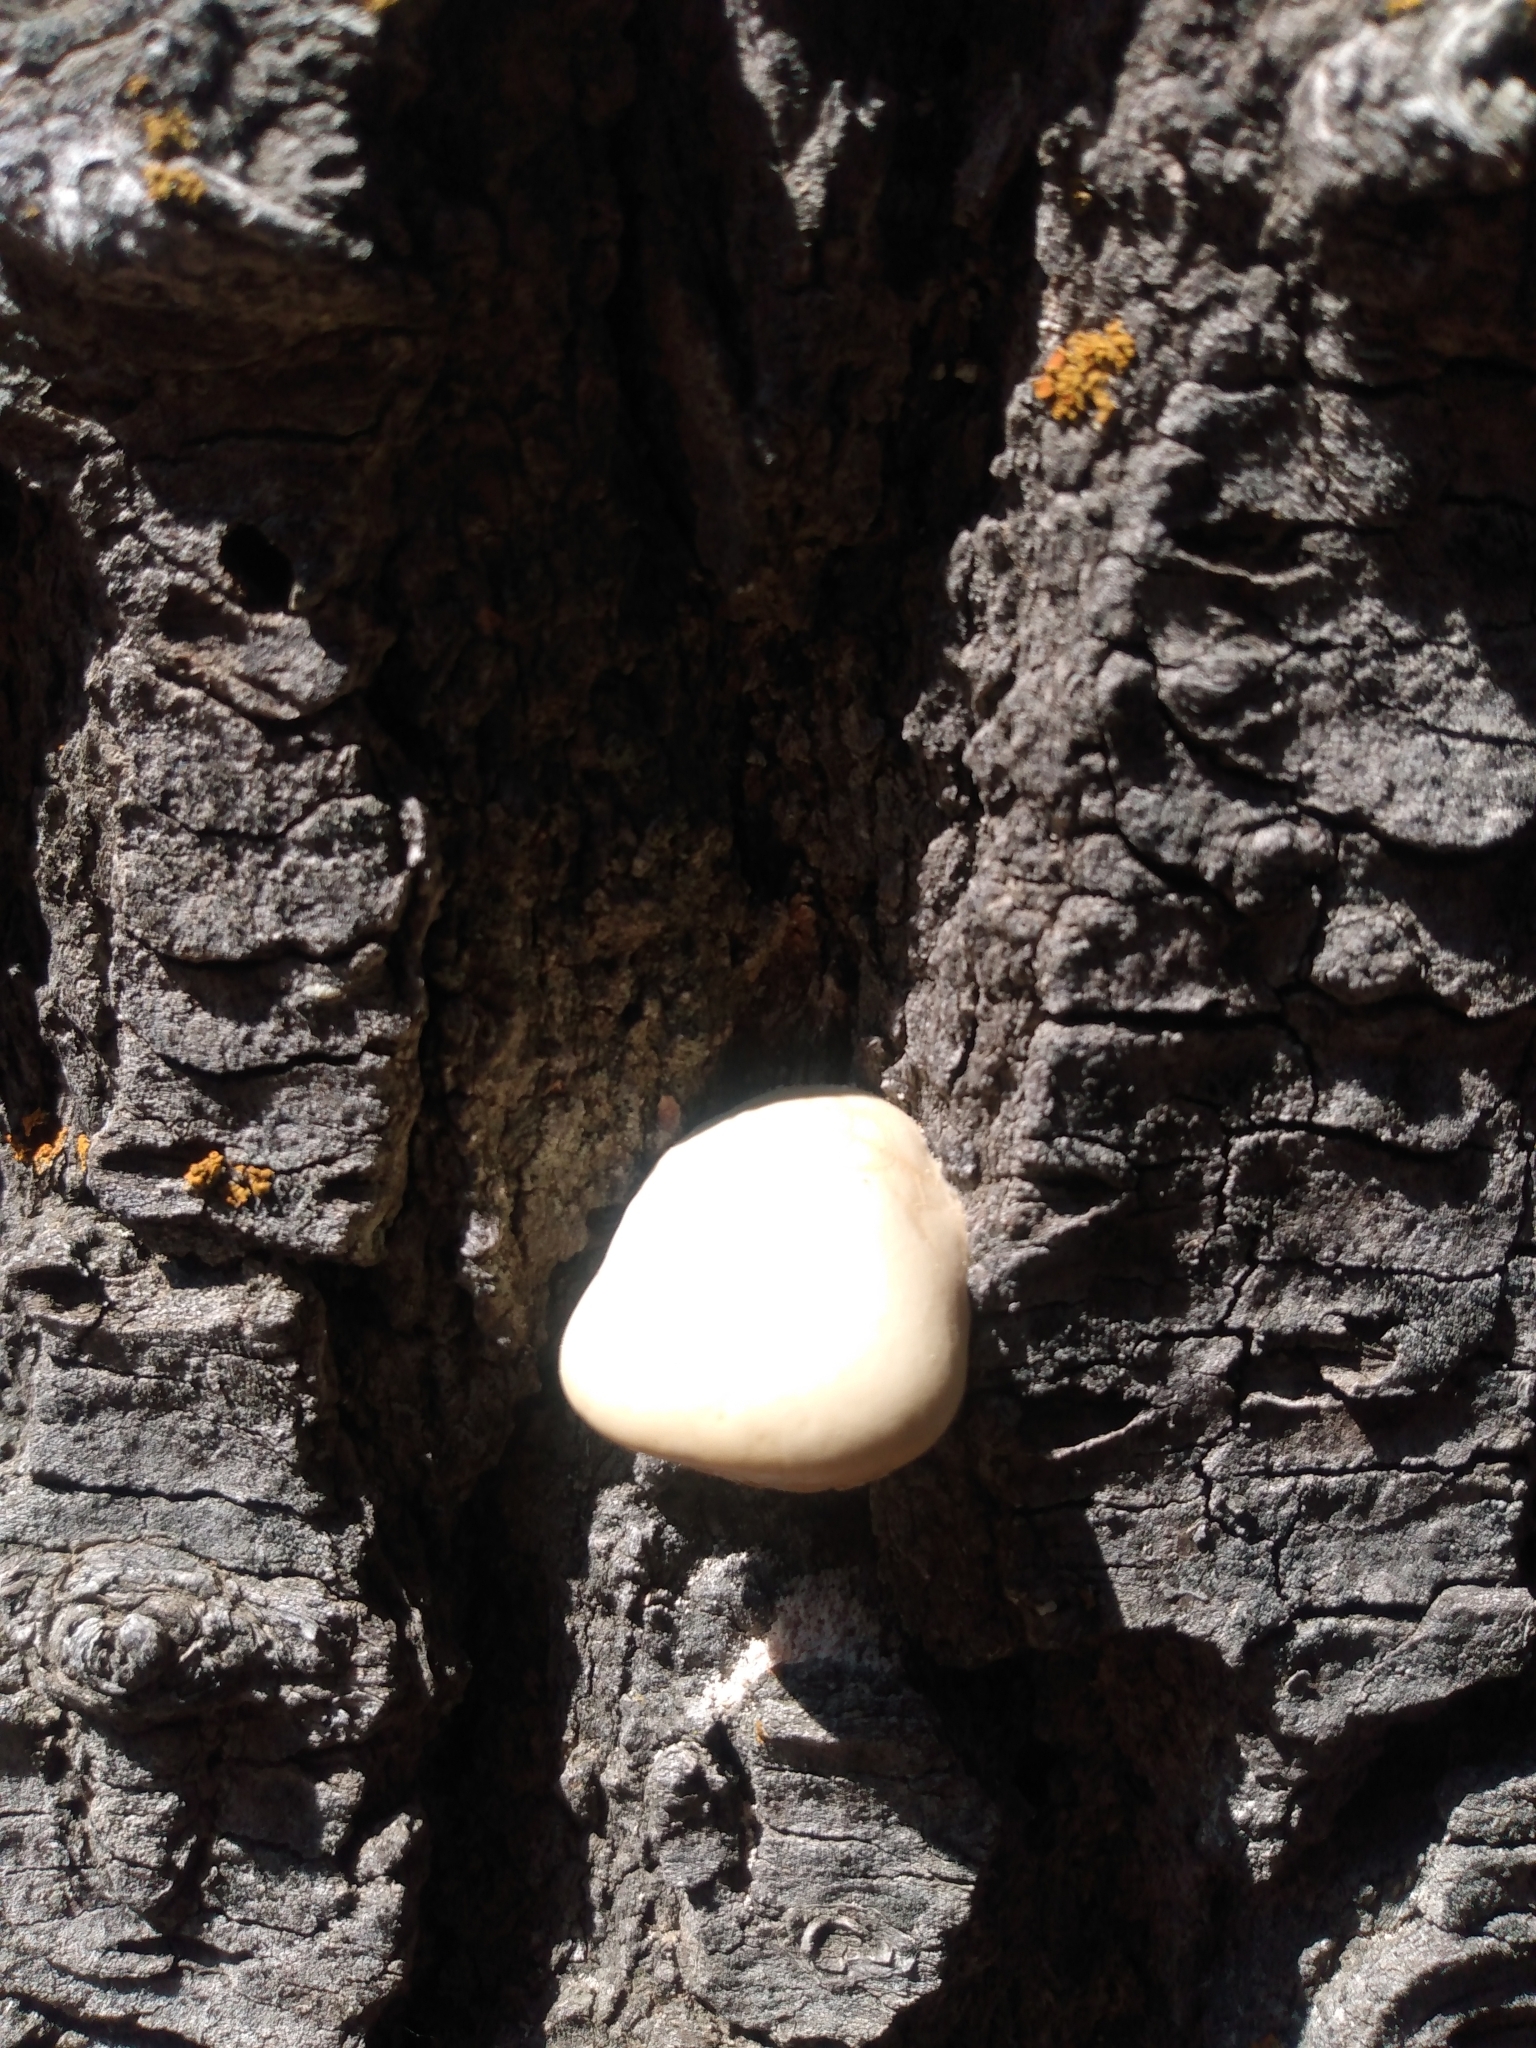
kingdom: Fungi
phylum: Basidiomycota
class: Agaricomycetes
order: Polyporales
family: Polyporaceae
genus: Cryptoporus
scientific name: Cryptoporus volvatus
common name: Veiled polypore
